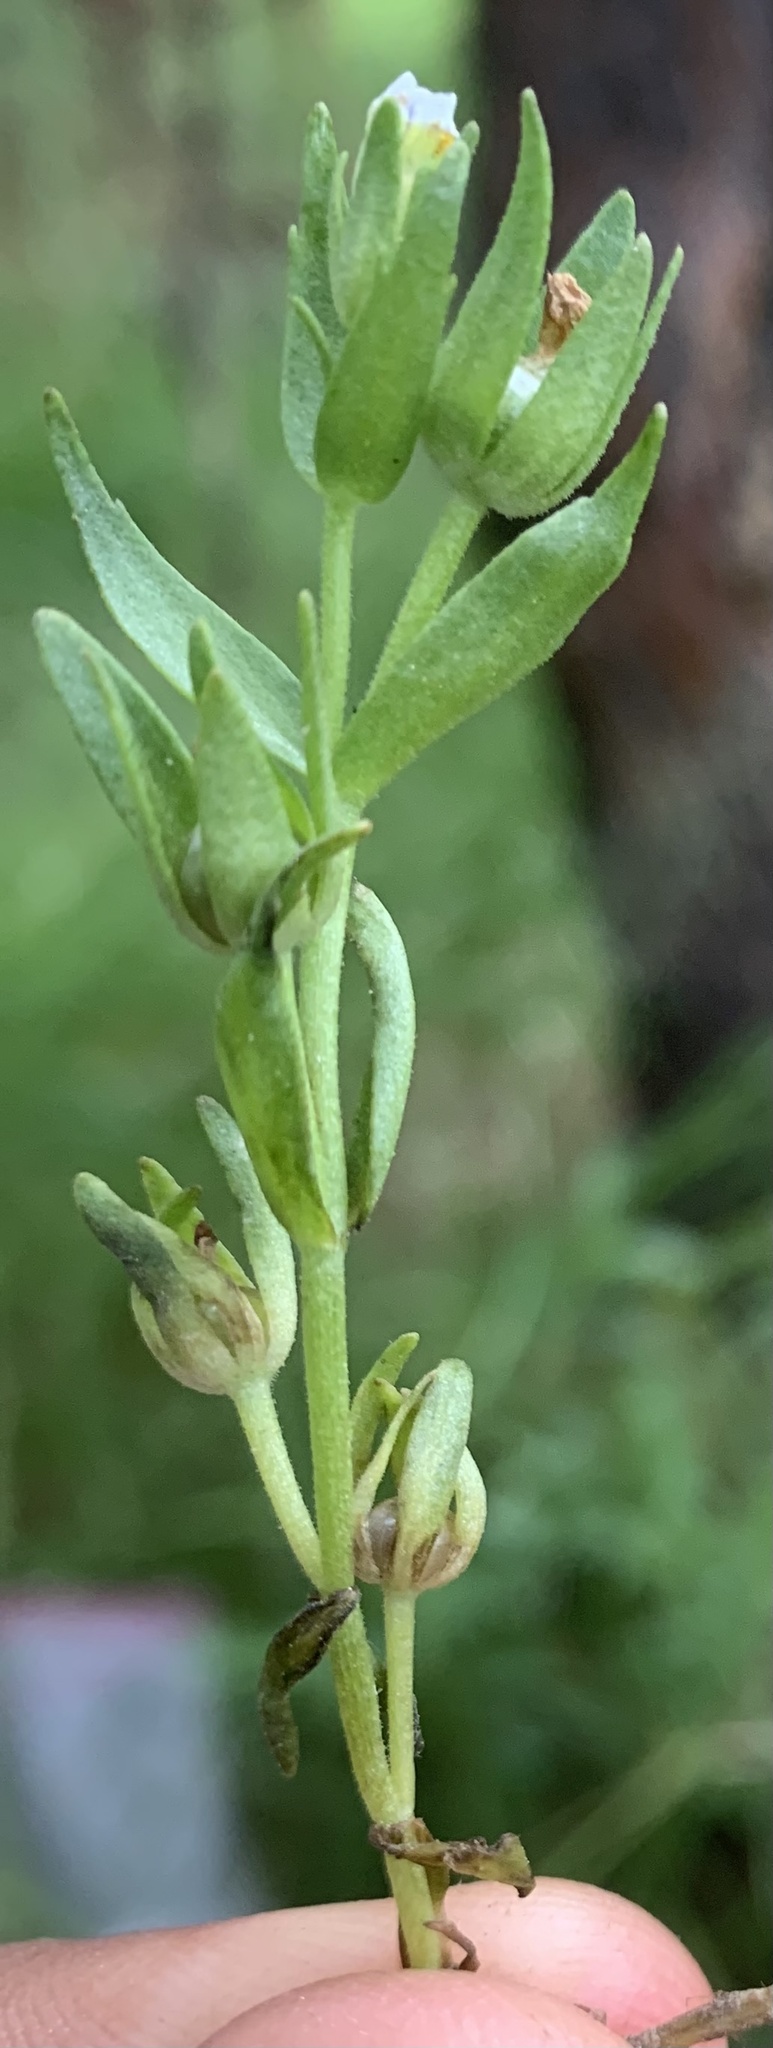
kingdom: Plantae
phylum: Tracheophyta
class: Magnoliopsida
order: Lamiales
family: Plantaginaceae
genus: Gratiola
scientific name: Gratiola ebracteata
